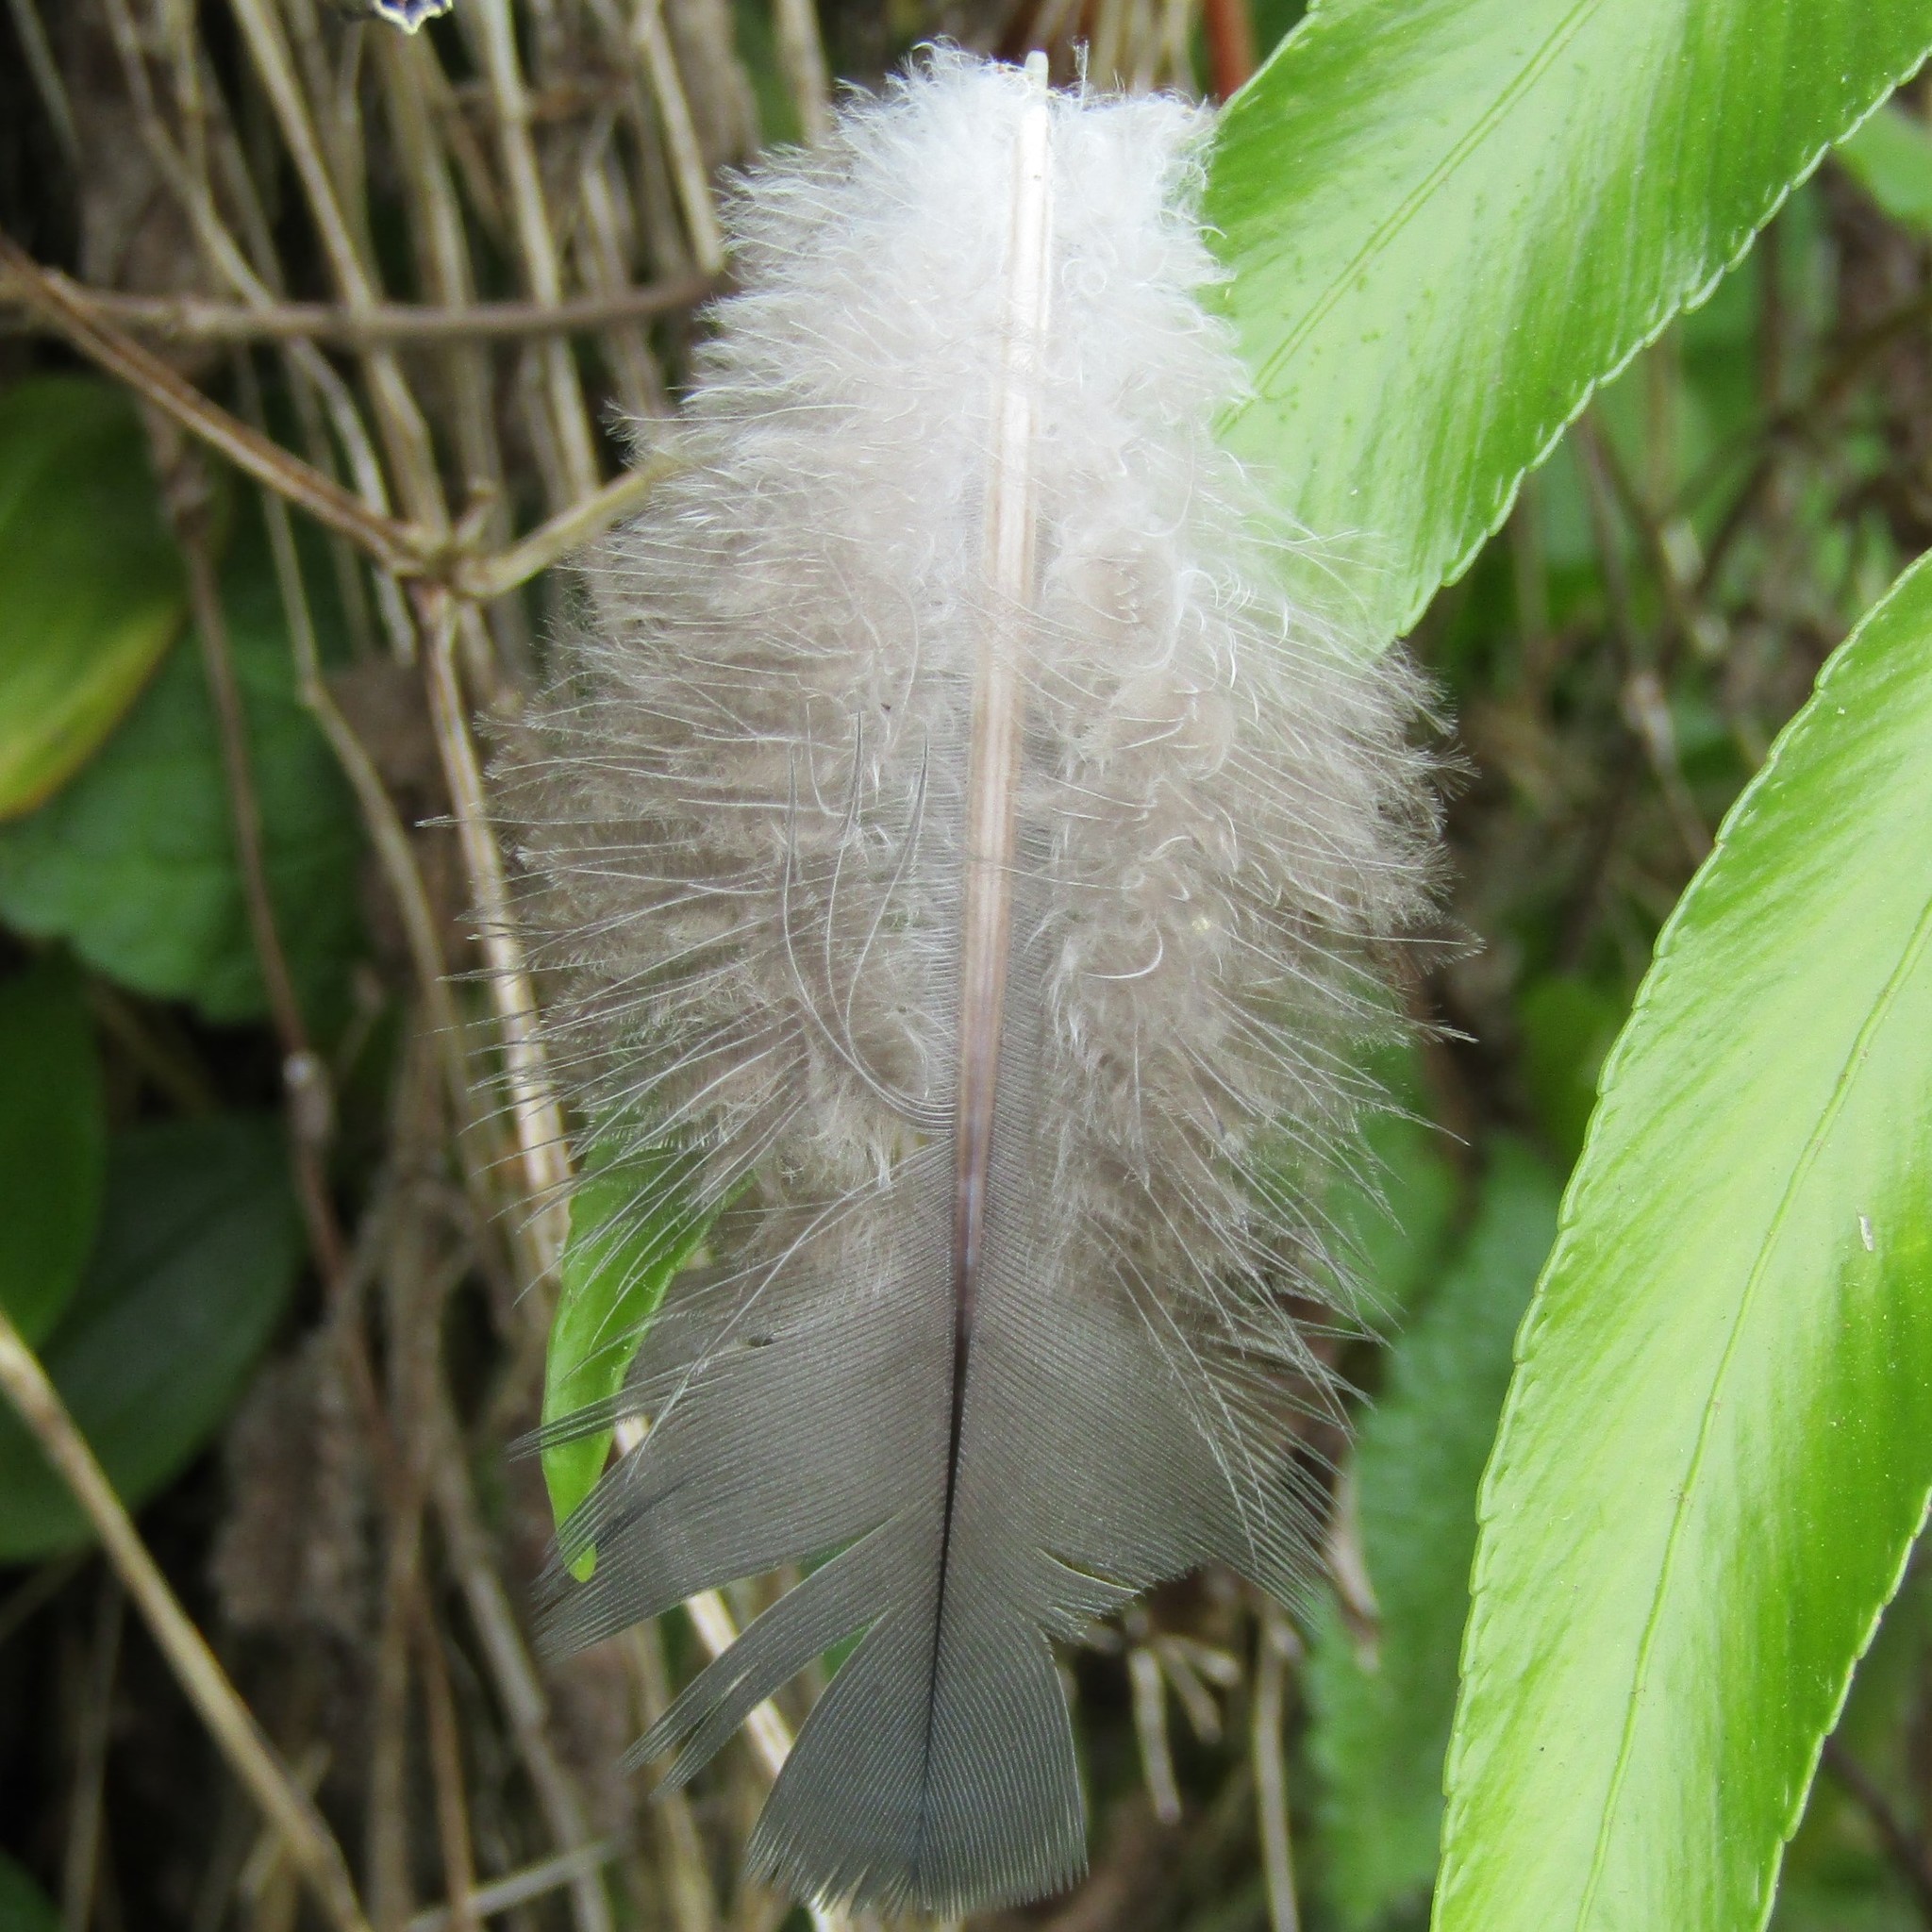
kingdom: Animalia
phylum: Chordata
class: Aves
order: Columbiformes
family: Columbidae
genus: Hemiphaga
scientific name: Hemiphaga novaeseelandiae
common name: New zealand pigeon
